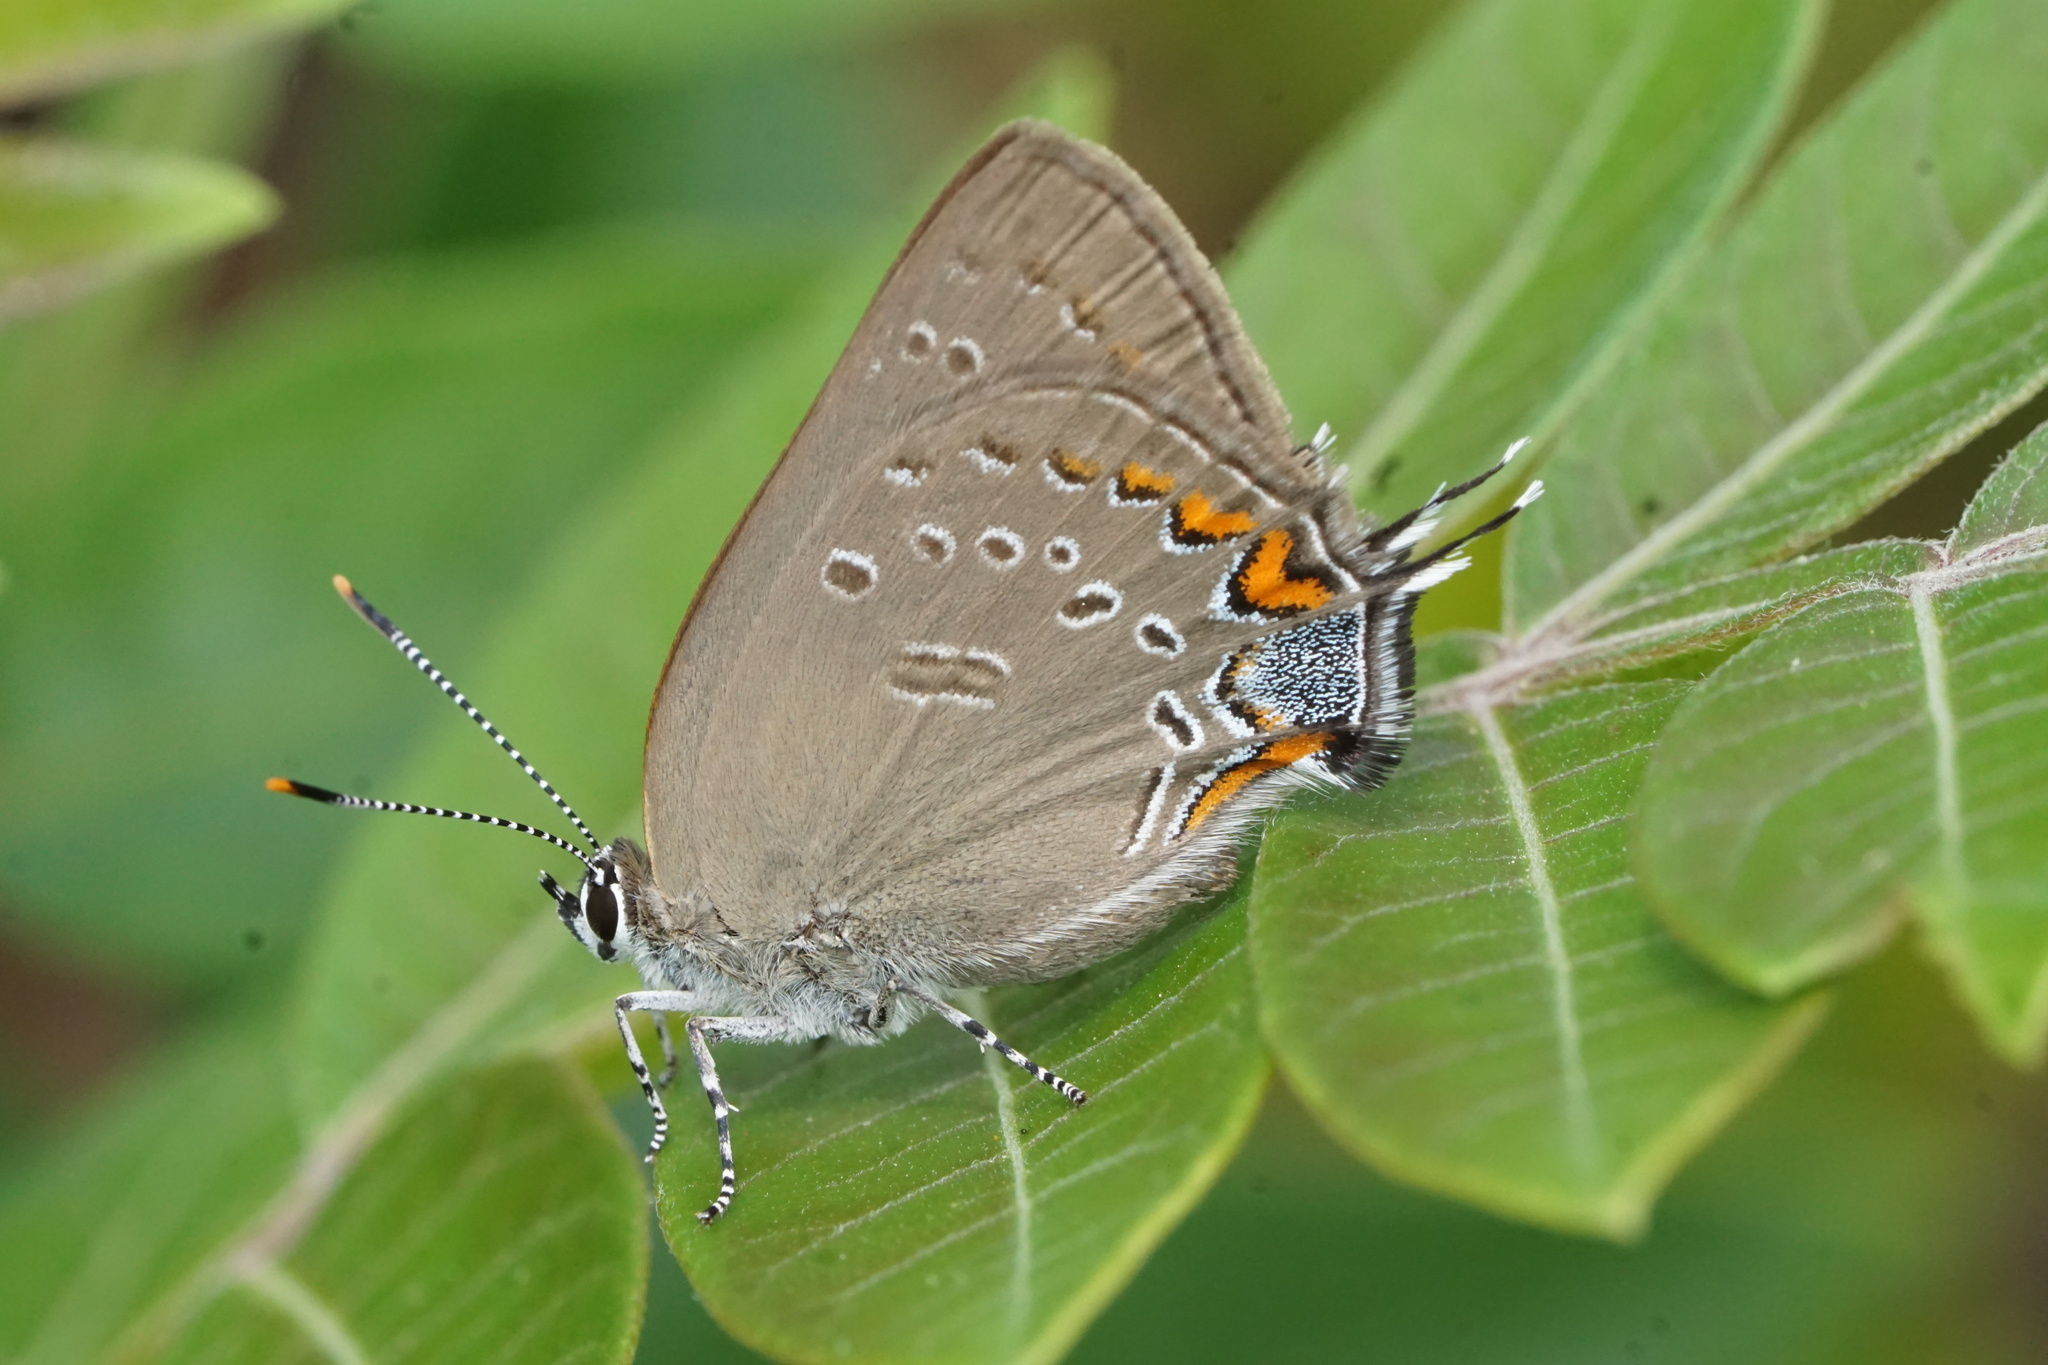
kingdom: Animalia
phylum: Arthropoda
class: Insecta
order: Lepidoptera
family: Lycaenidae
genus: Satyrium
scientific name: Satyrium edwardsii
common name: Edwards' hairstreak
